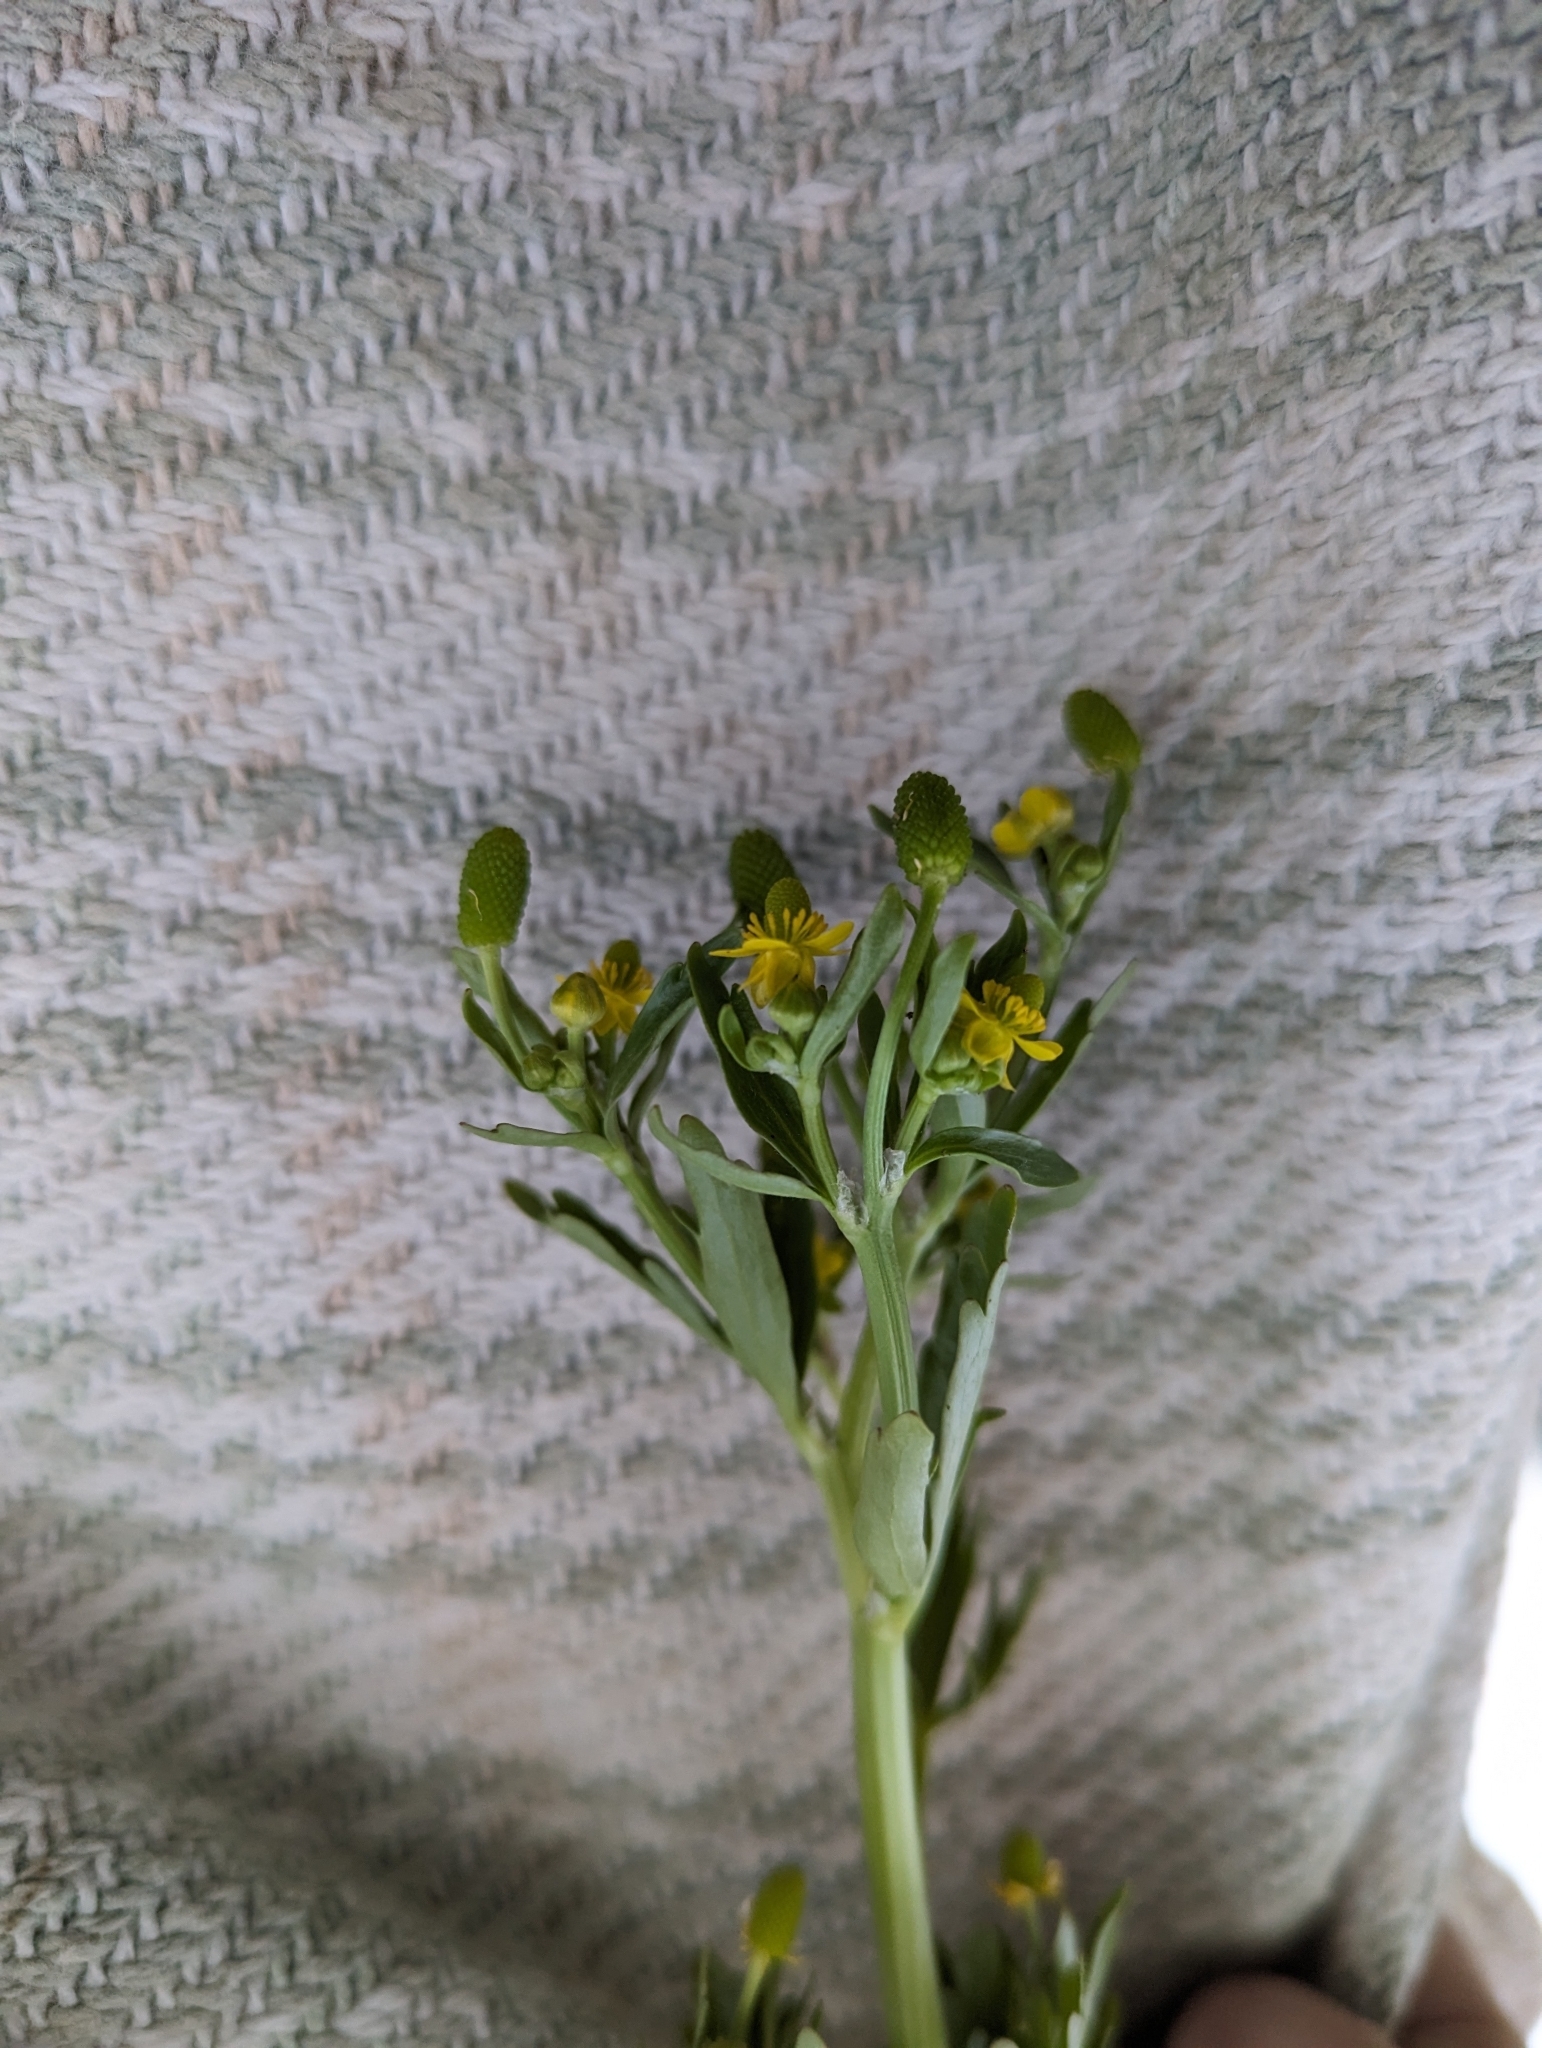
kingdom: Plantae
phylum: Tracheophyta
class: Magnoliopsida
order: Ranunculales
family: Ranunculaceae
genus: Ranunculus
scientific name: Ranunculus sceleratus
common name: Celery-leaved buttercup
